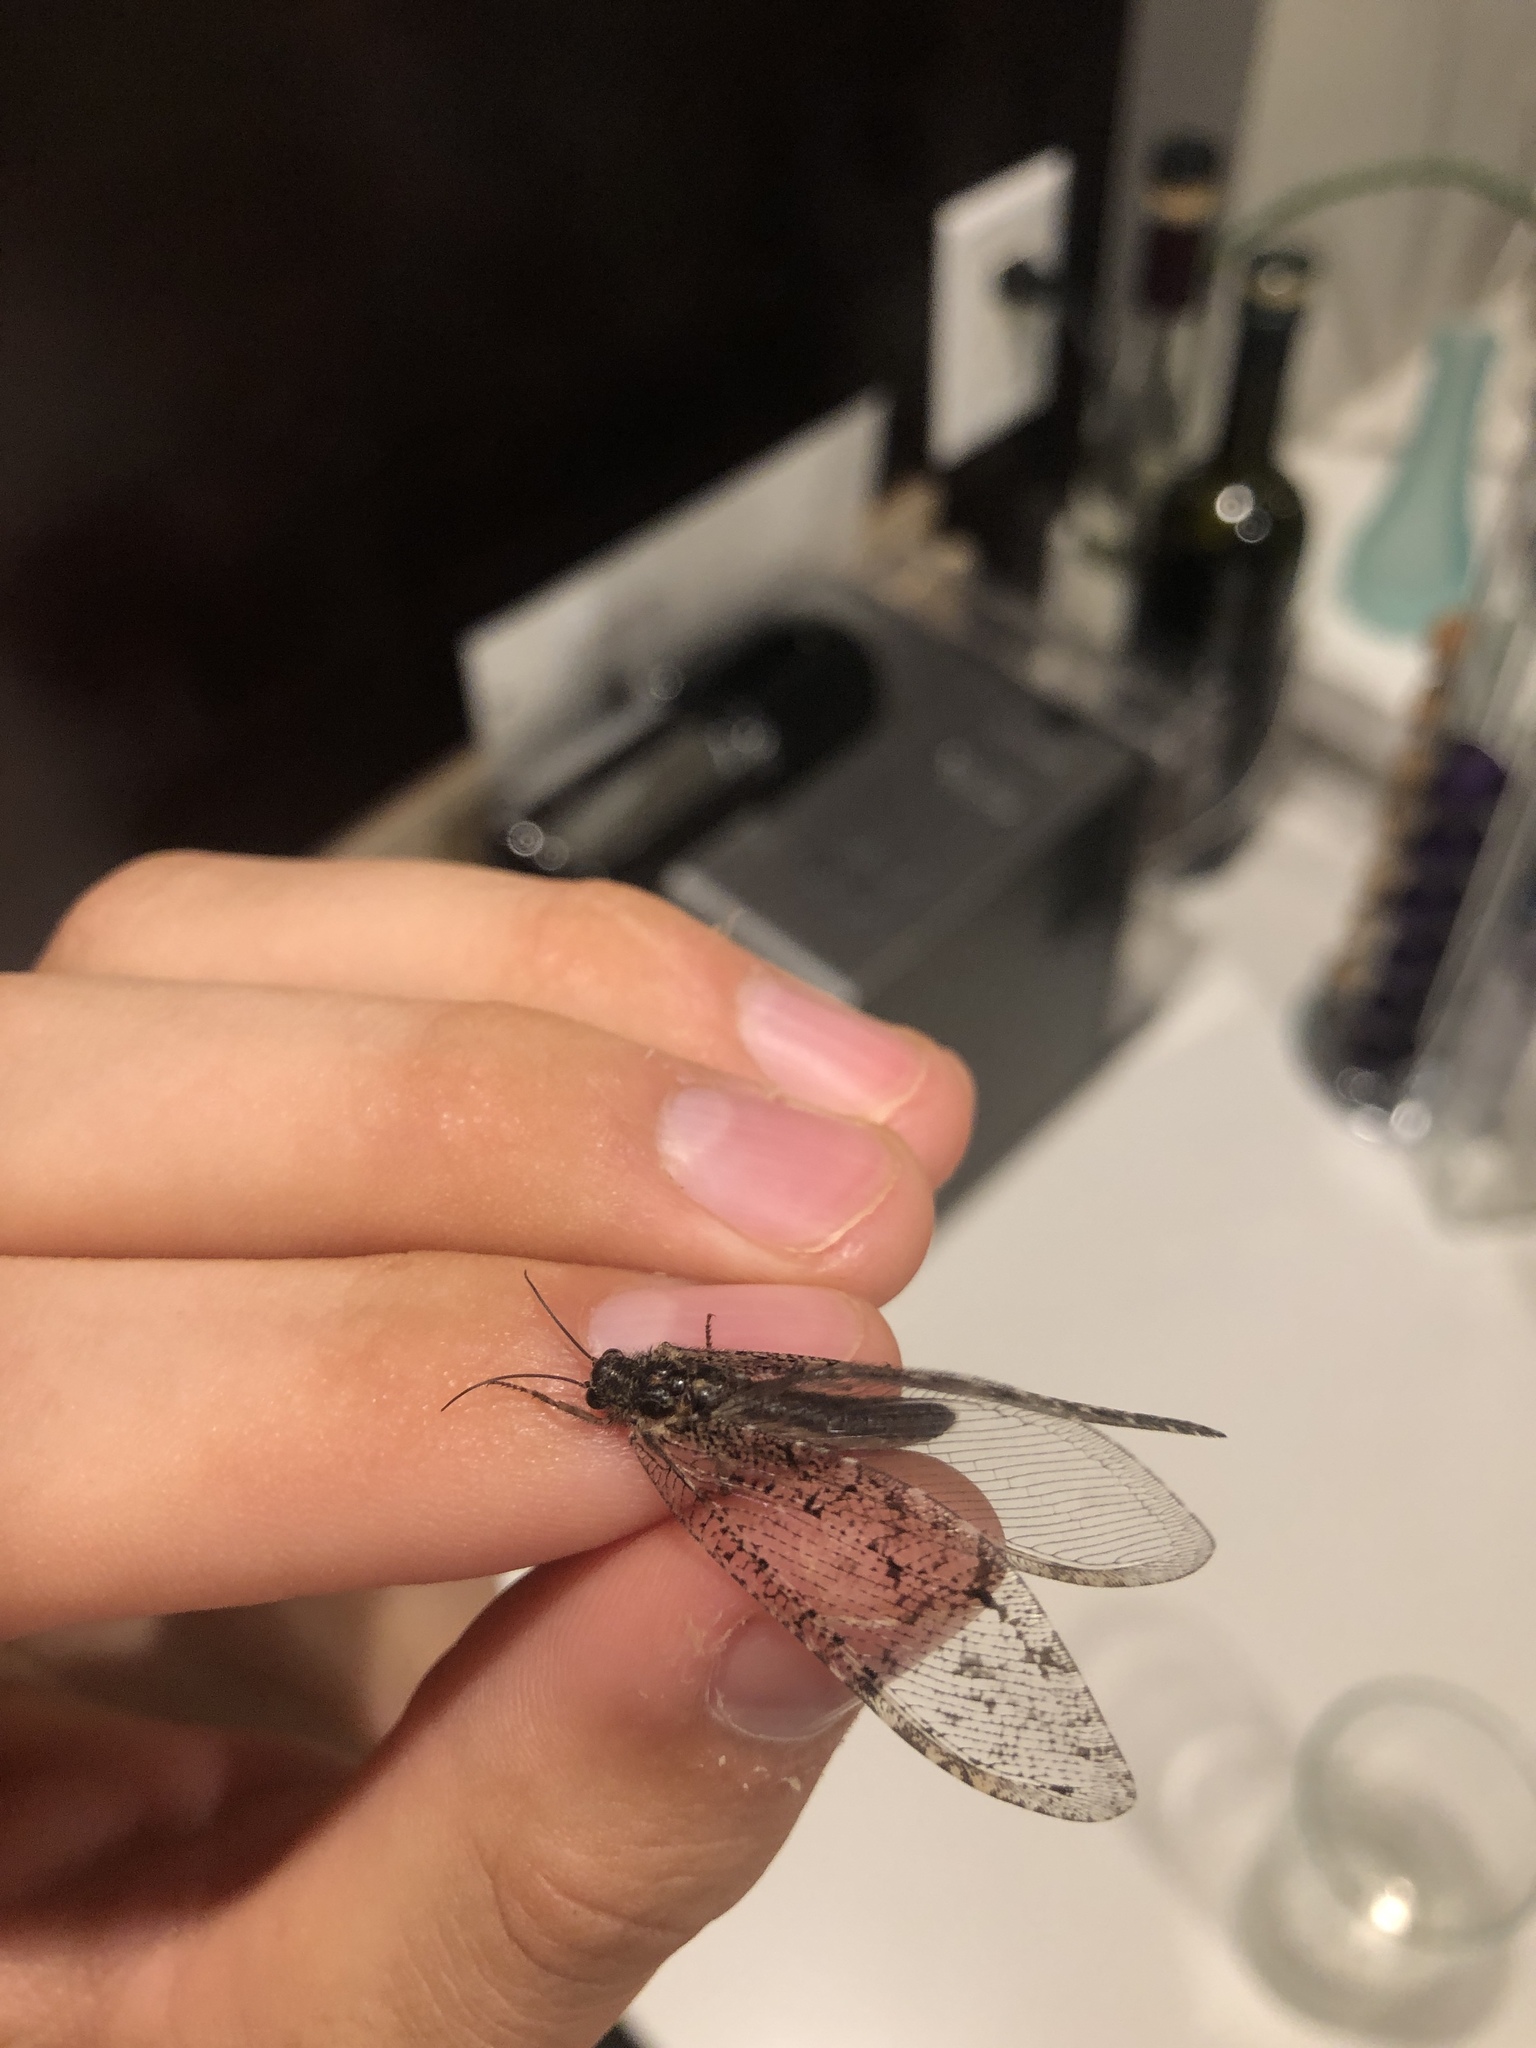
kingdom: Animalia
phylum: Arthropoda
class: Insecta
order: Neuroptera
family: Ithonidae
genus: Polystoechotes
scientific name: Polystoechotes punctata
